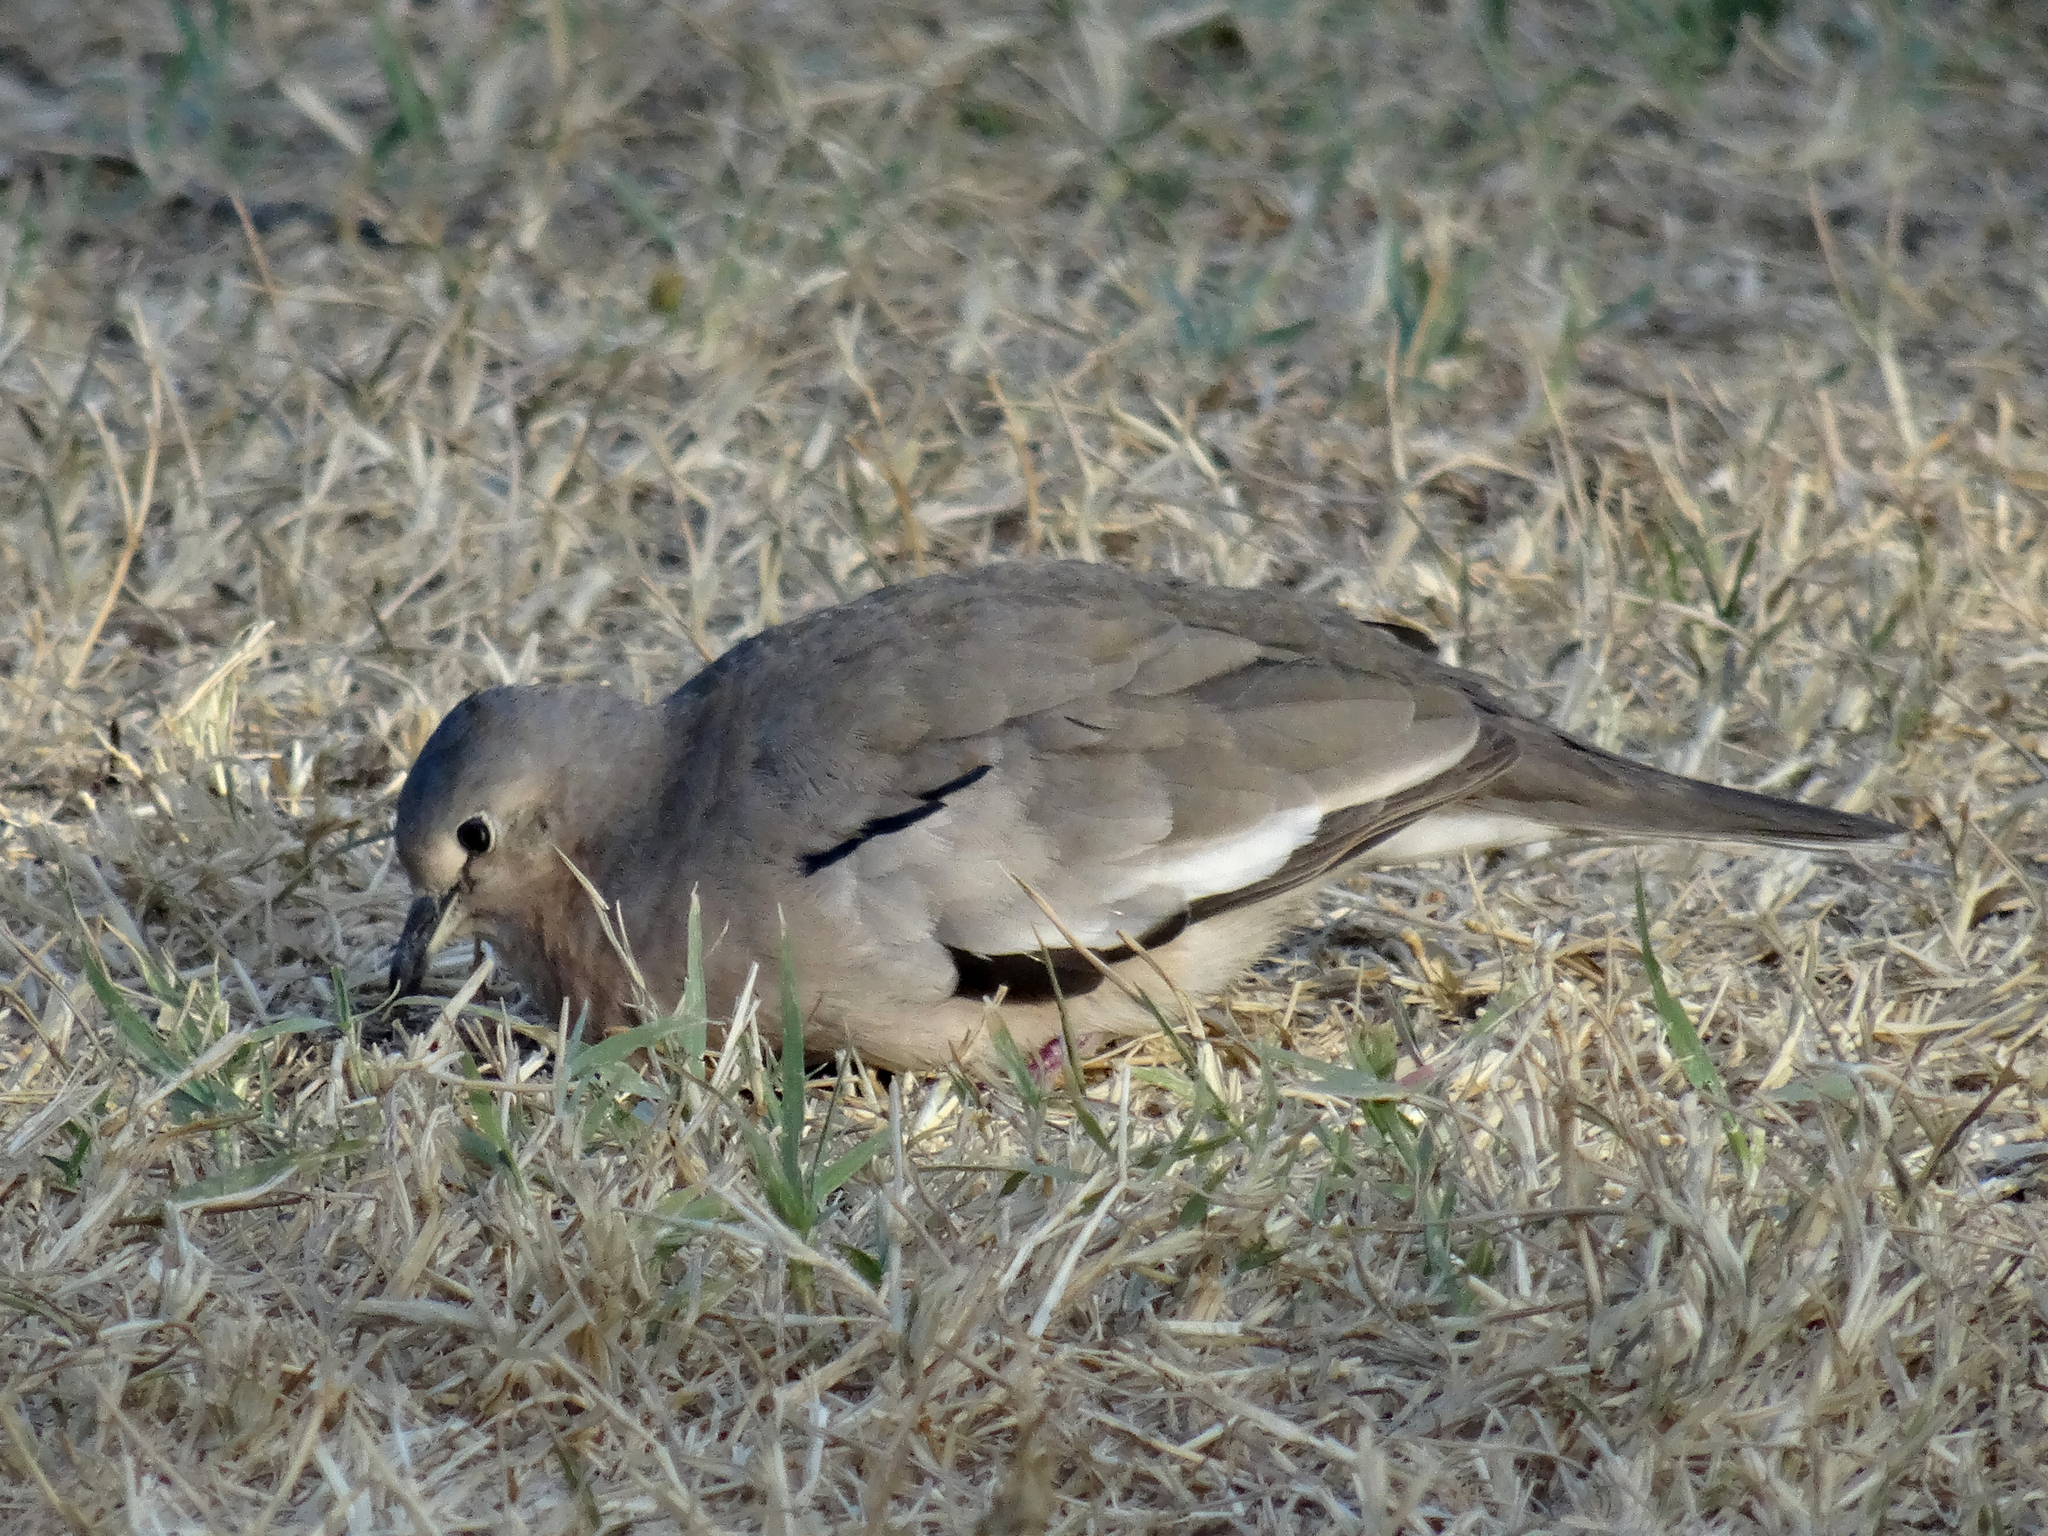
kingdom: Animalia
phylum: Chordata
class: Aves
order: Columbiformes
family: Columbidae
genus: Columbina
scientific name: Columbina picui
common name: Picui ground dove
